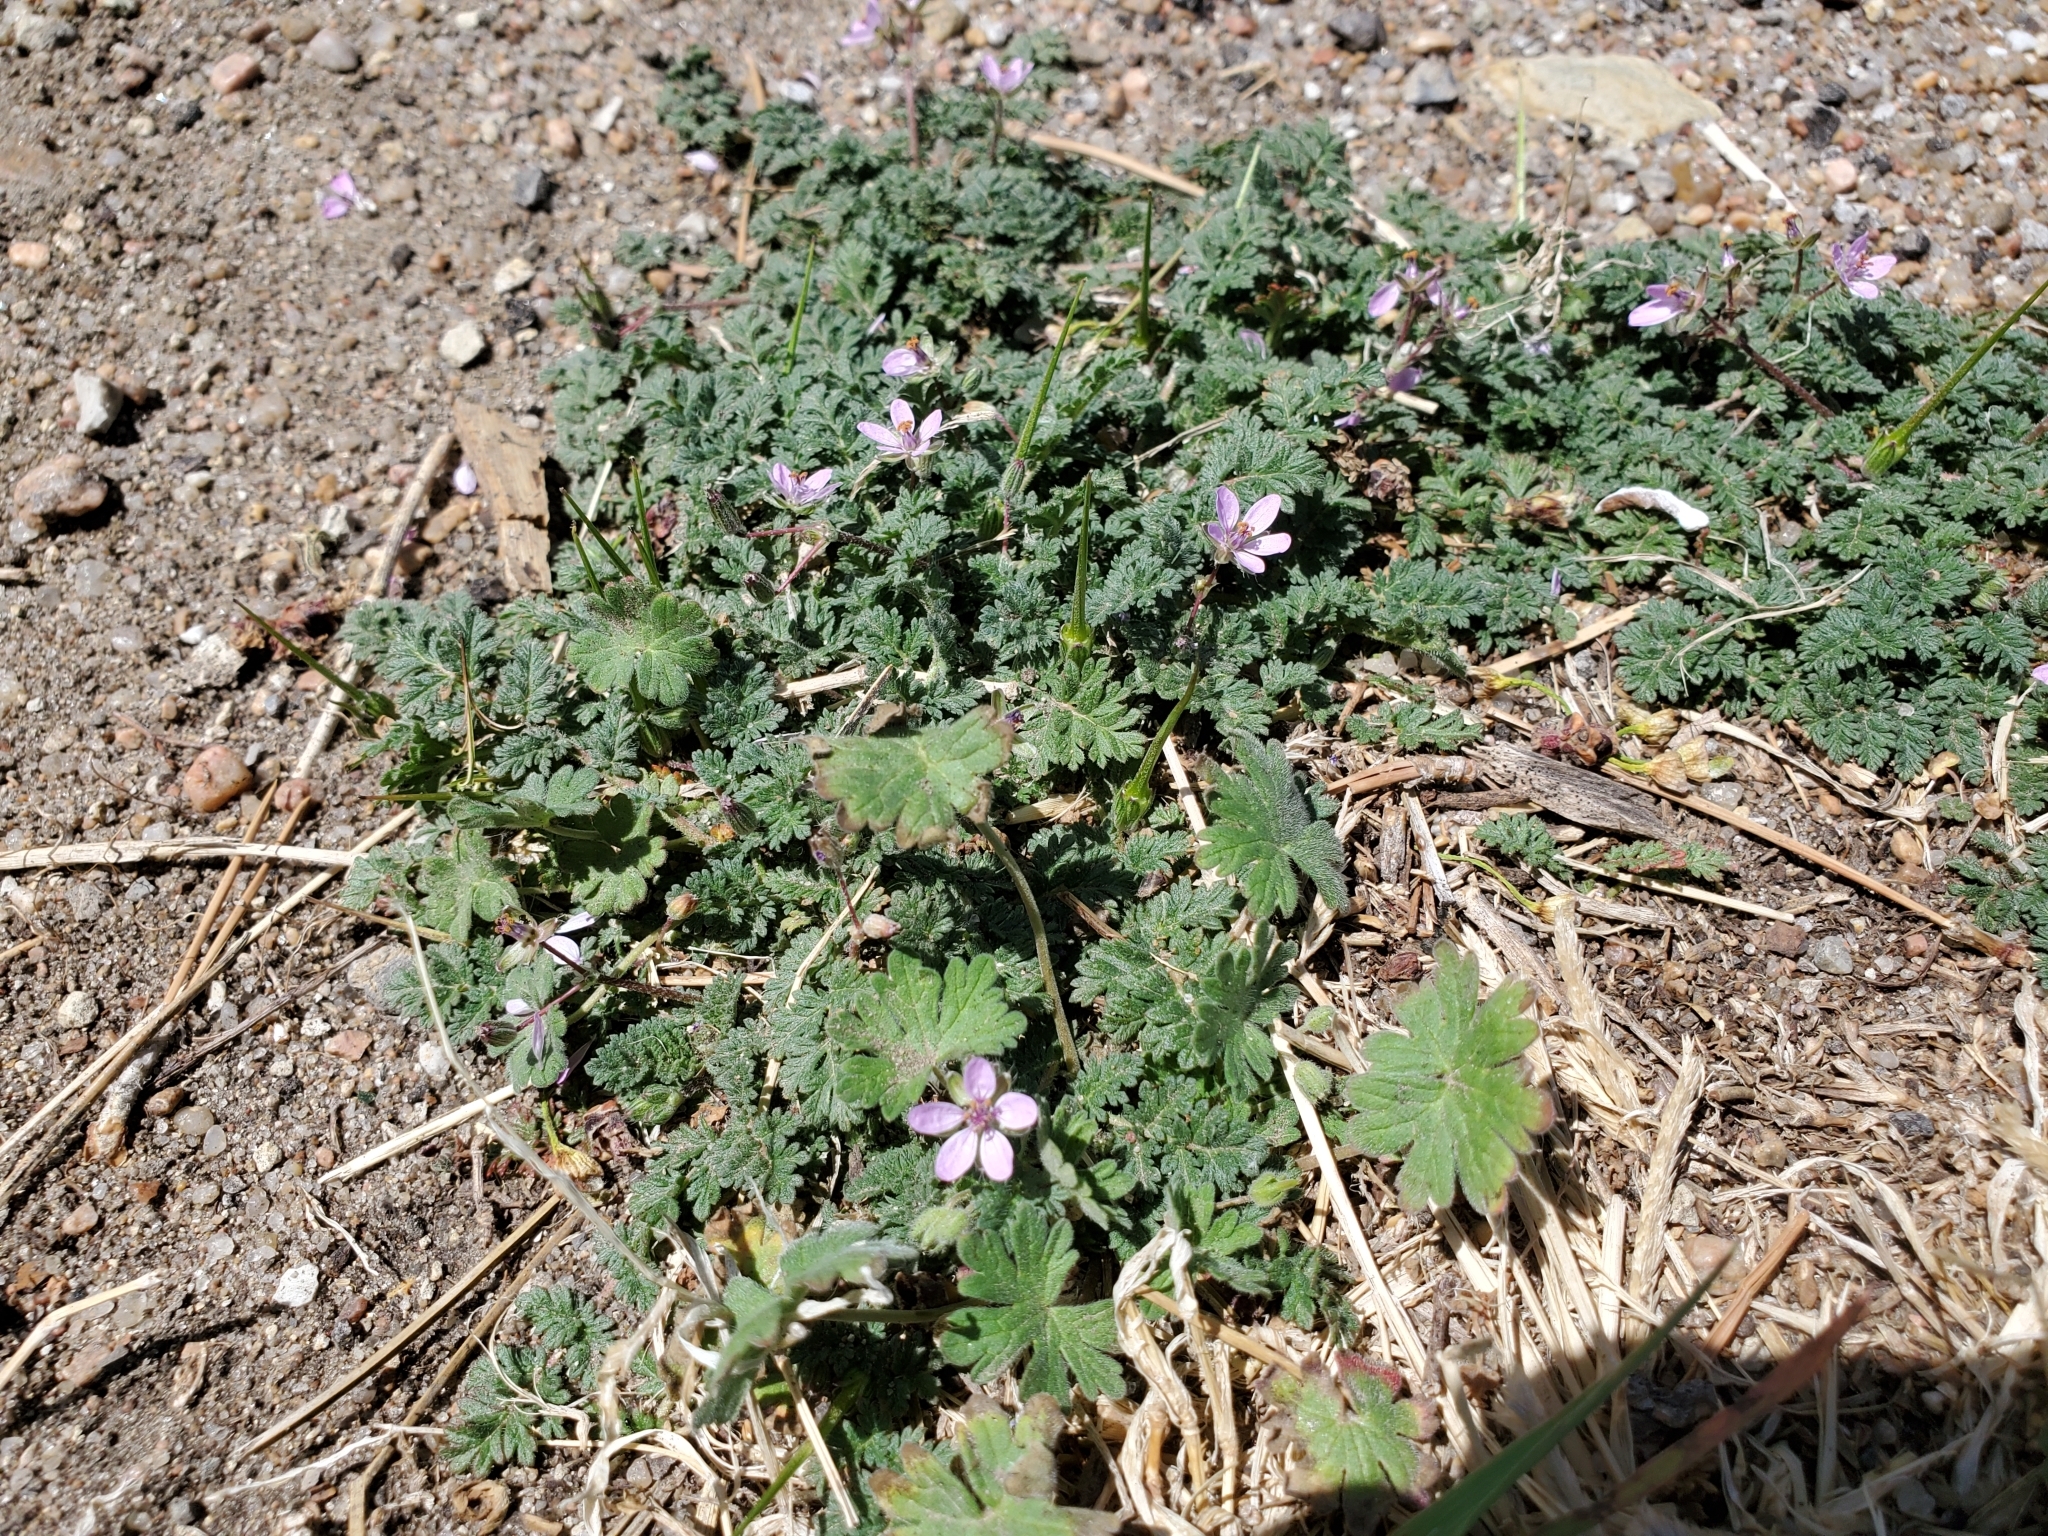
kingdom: Plantae
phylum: Tracheophyta
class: Magnoliopsida
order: Geraniales
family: Geraniaceae
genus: Erodium
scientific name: Erodium cicutarium
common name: Common stork's-bill
